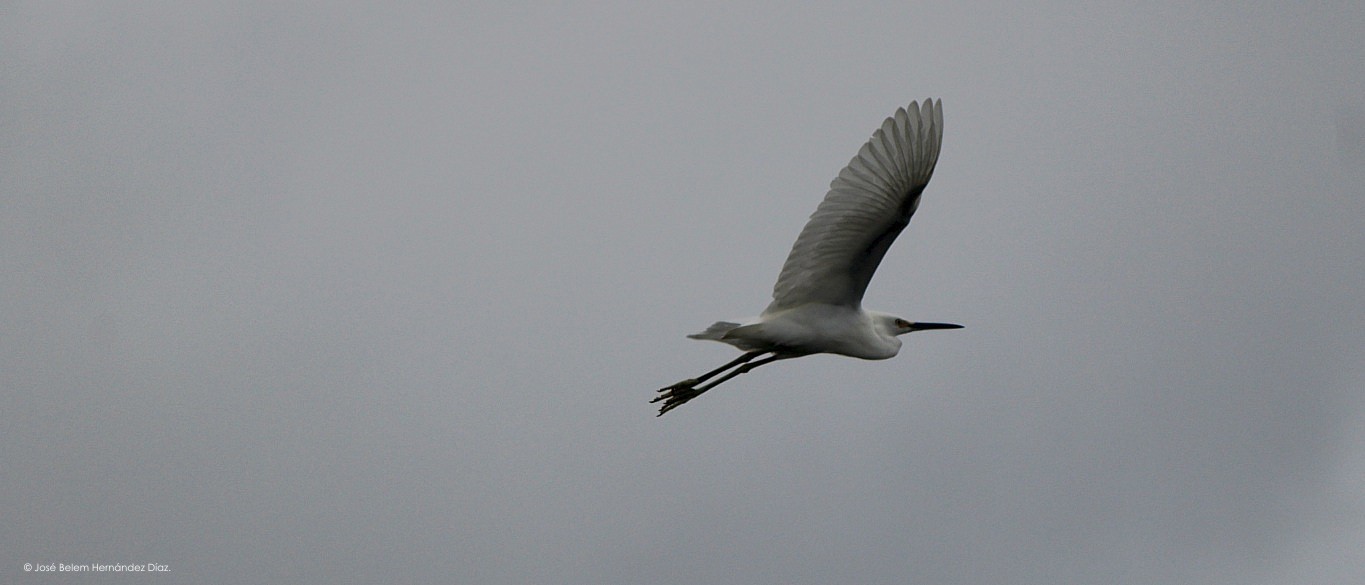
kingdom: Animalia
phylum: Chordata
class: Aves
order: Pelecaniformes
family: Ardeidae
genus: Egretta
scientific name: Egretta thula
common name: Snowy egret
